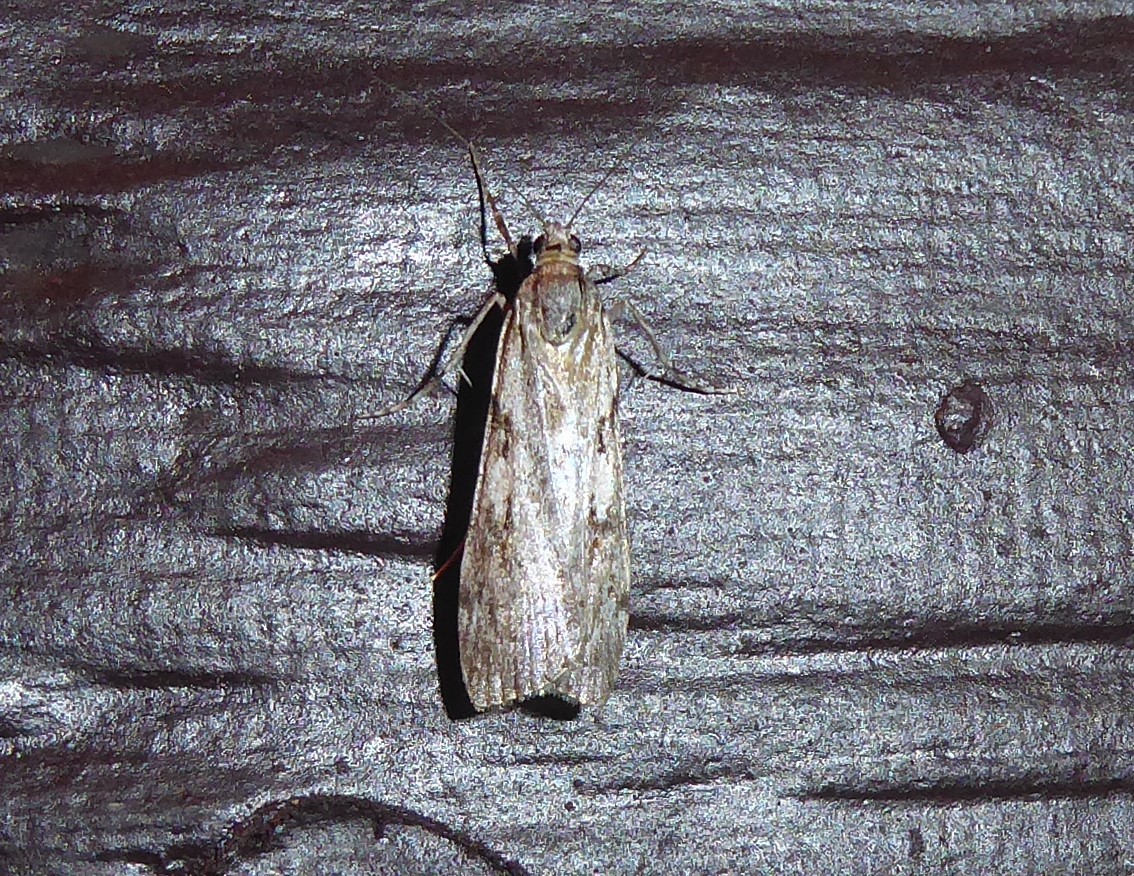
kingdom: Animalia
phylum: Arthropoda
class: Insecta
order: Lepidoptera
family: Crambidae
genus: Scoparia
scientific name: Scoparia halopis
